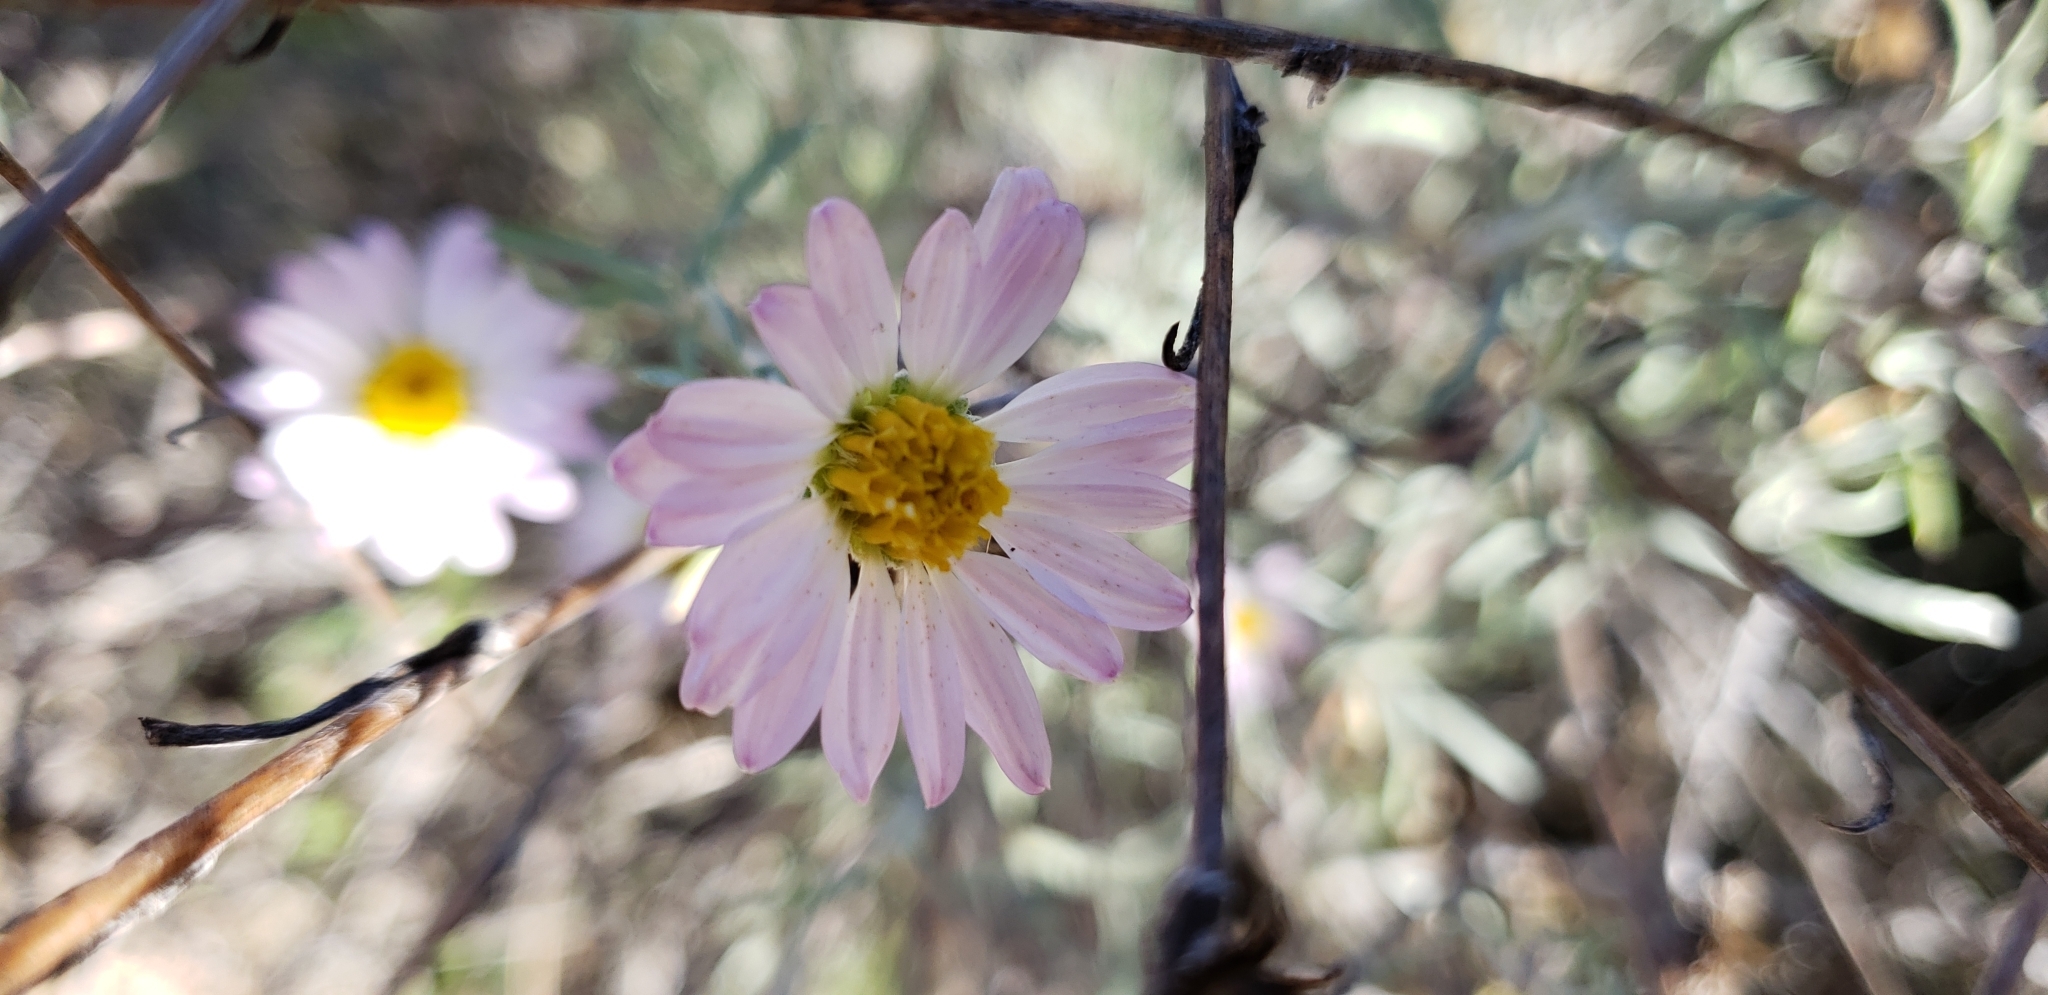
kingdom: Plantae
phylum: Tracheophyta
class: Magnoliopsida
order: Asterales
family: Asteraceae
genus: Corethrogyne
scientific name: Corethrogyne filaginifolia
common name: Sand-aster
